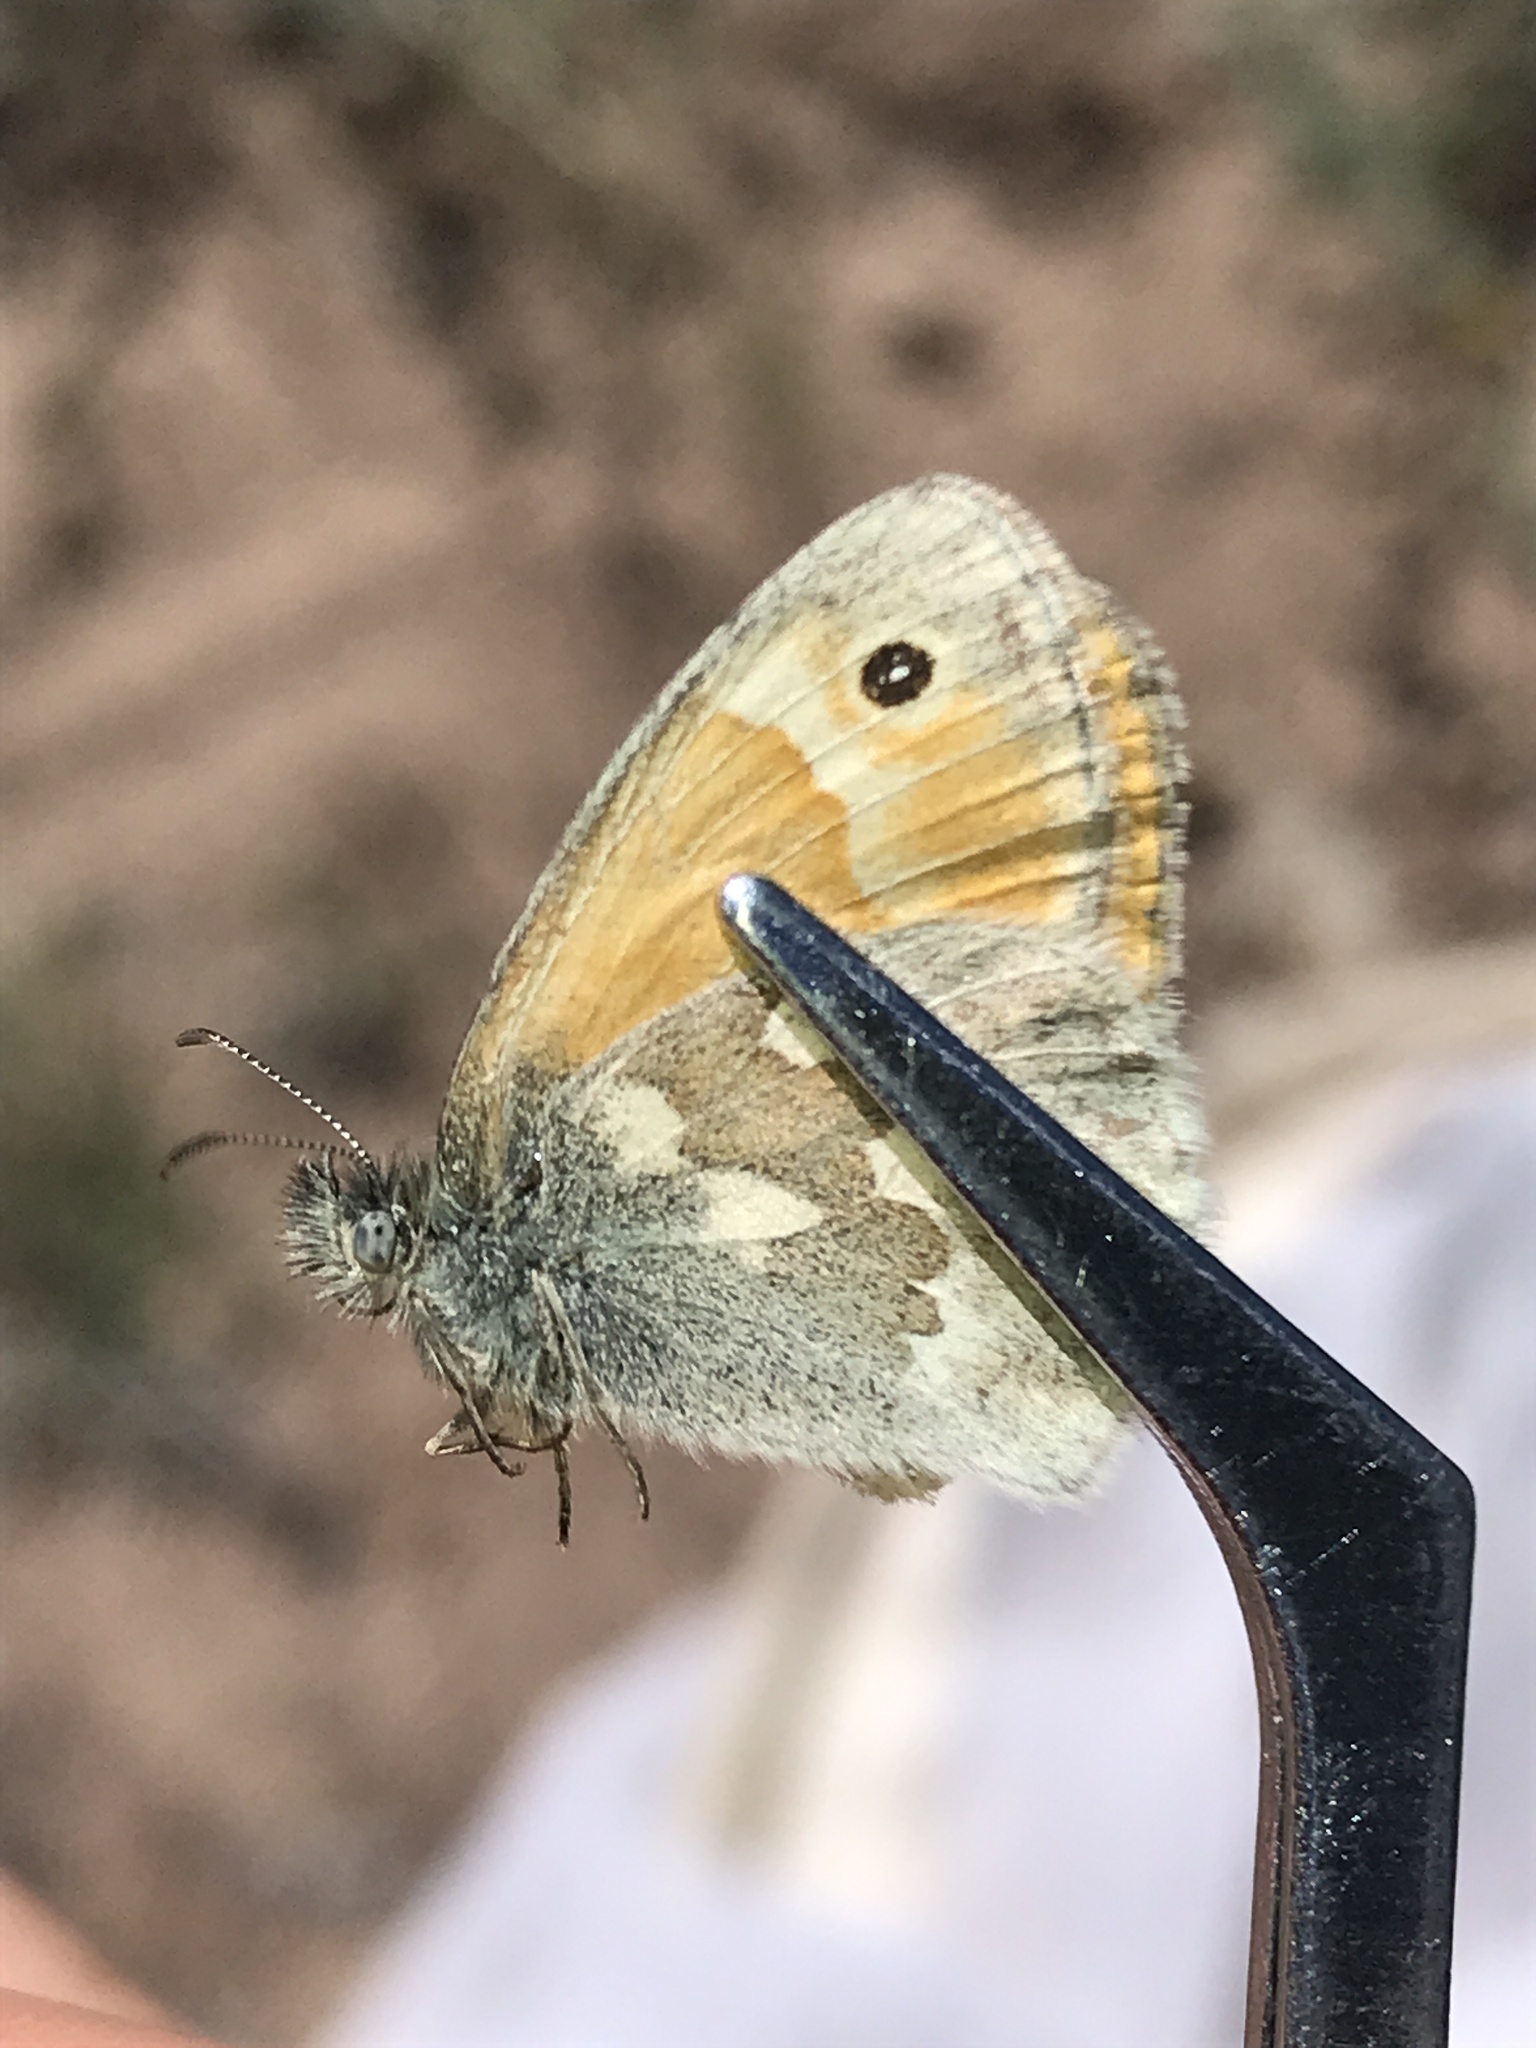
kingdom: Animalia
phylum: Arthropoda
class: Insecta
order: Lepidoptera
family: Nymphalidae
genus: Coenonympha
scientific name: Coenonympha california
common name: Common ringlet
